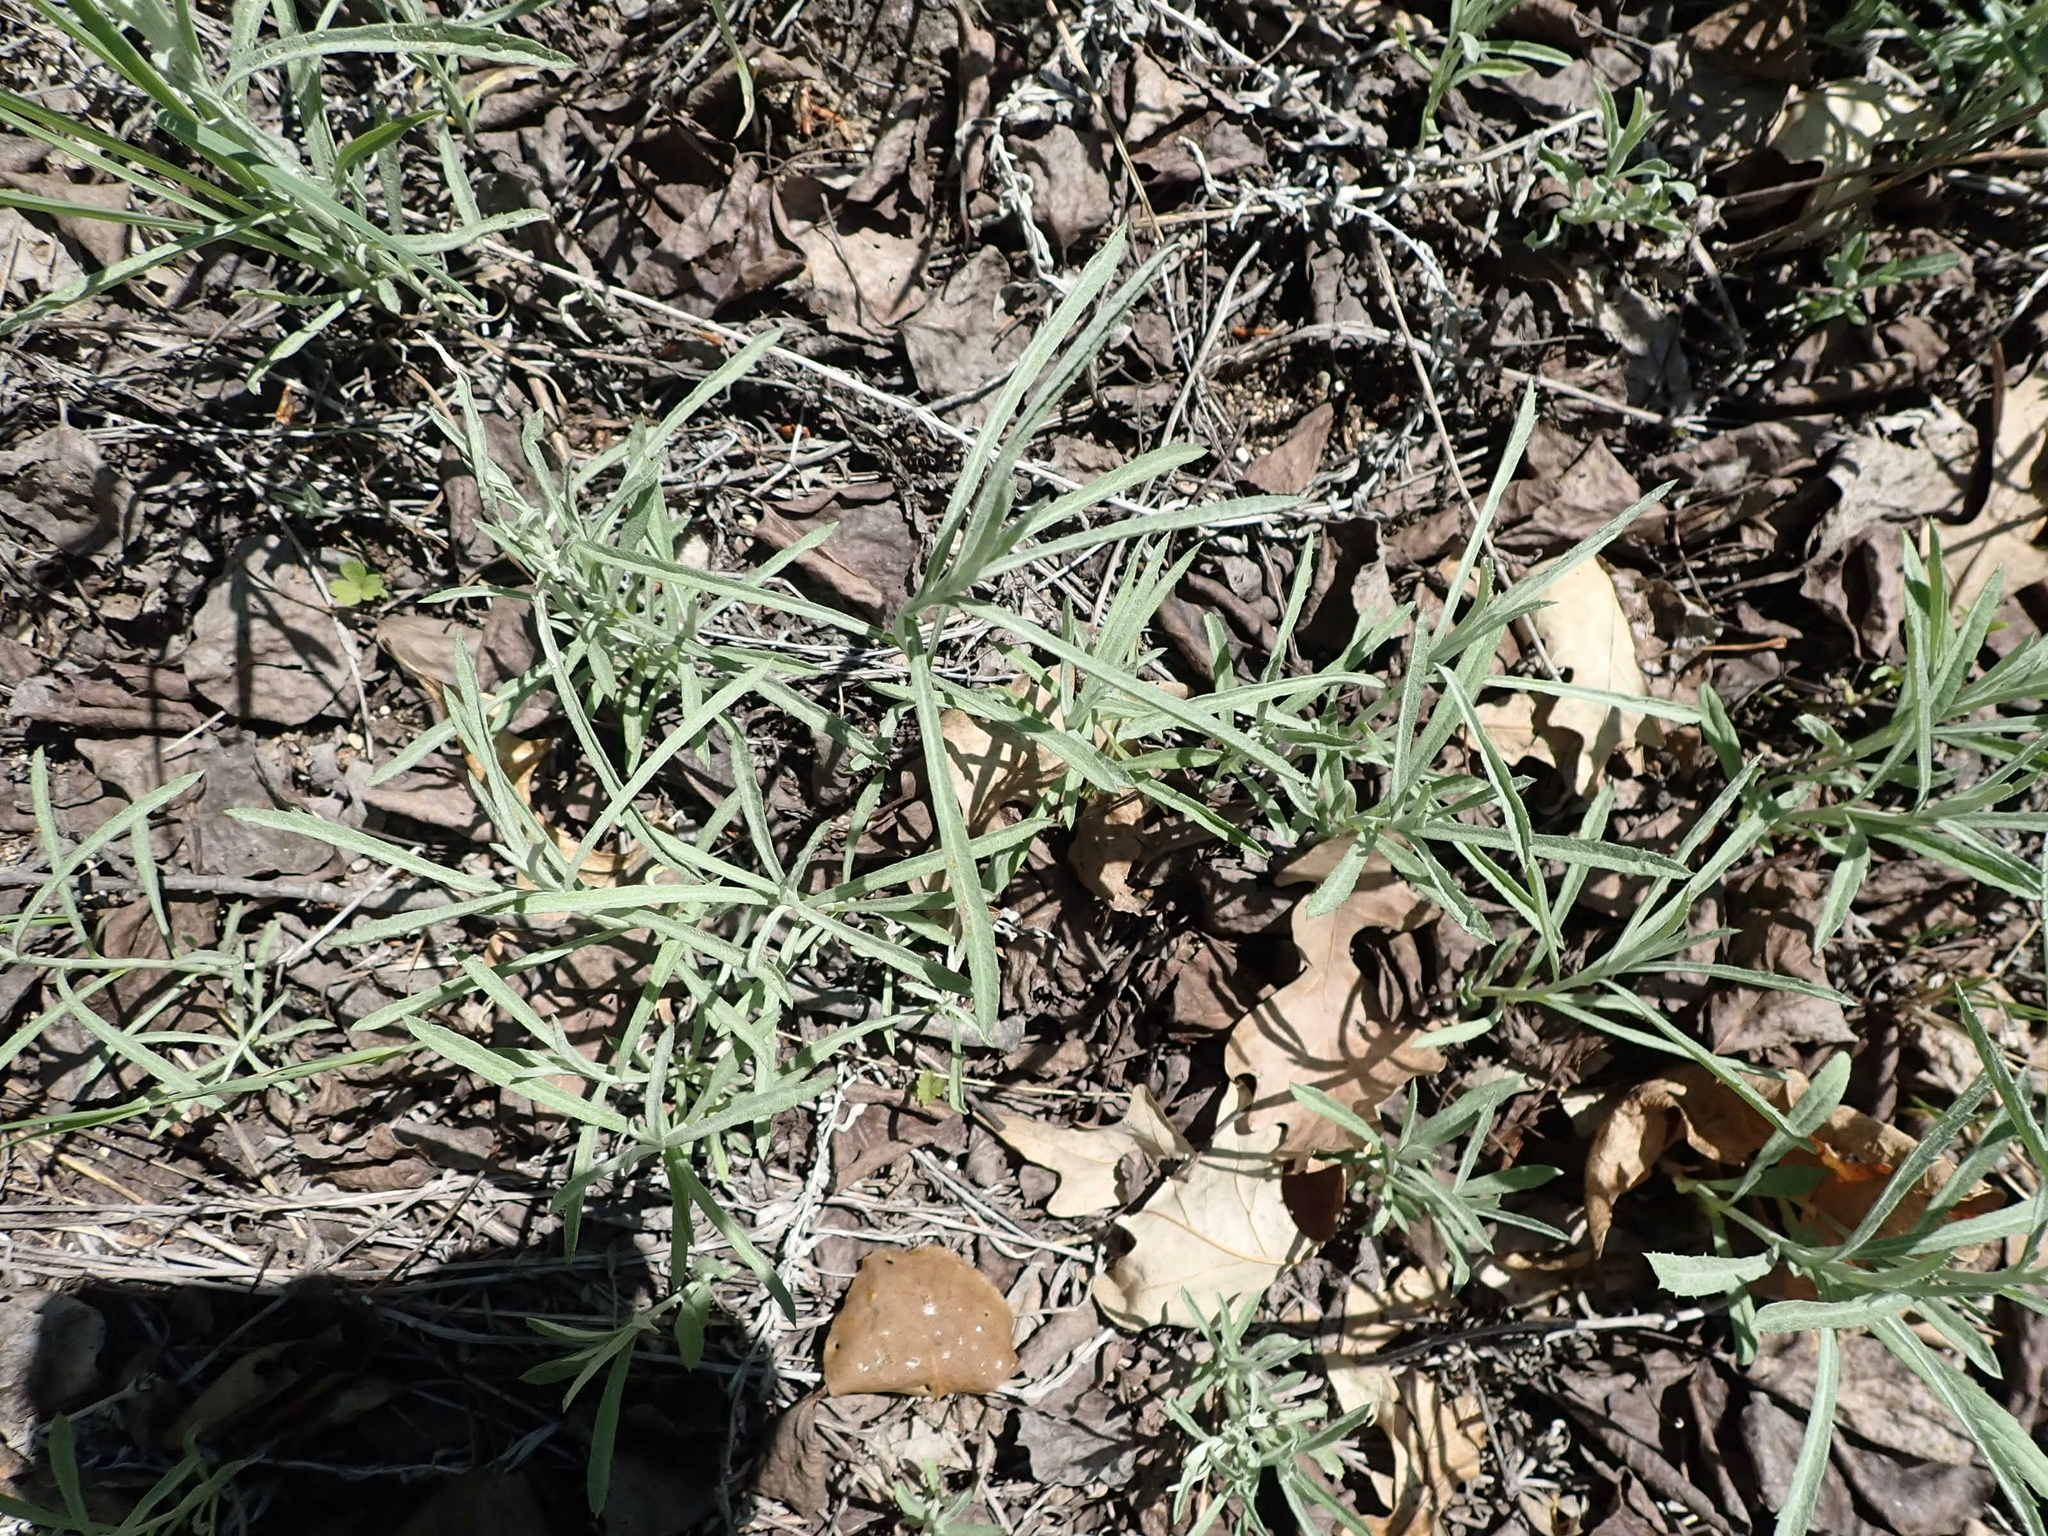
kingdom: Plantae
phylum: Tracheophyta
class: Magnoliopsida
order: Asterales
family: Asteraceae
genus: Artemisia
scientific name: Artemisia ludoviciana
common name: Western mugwort
